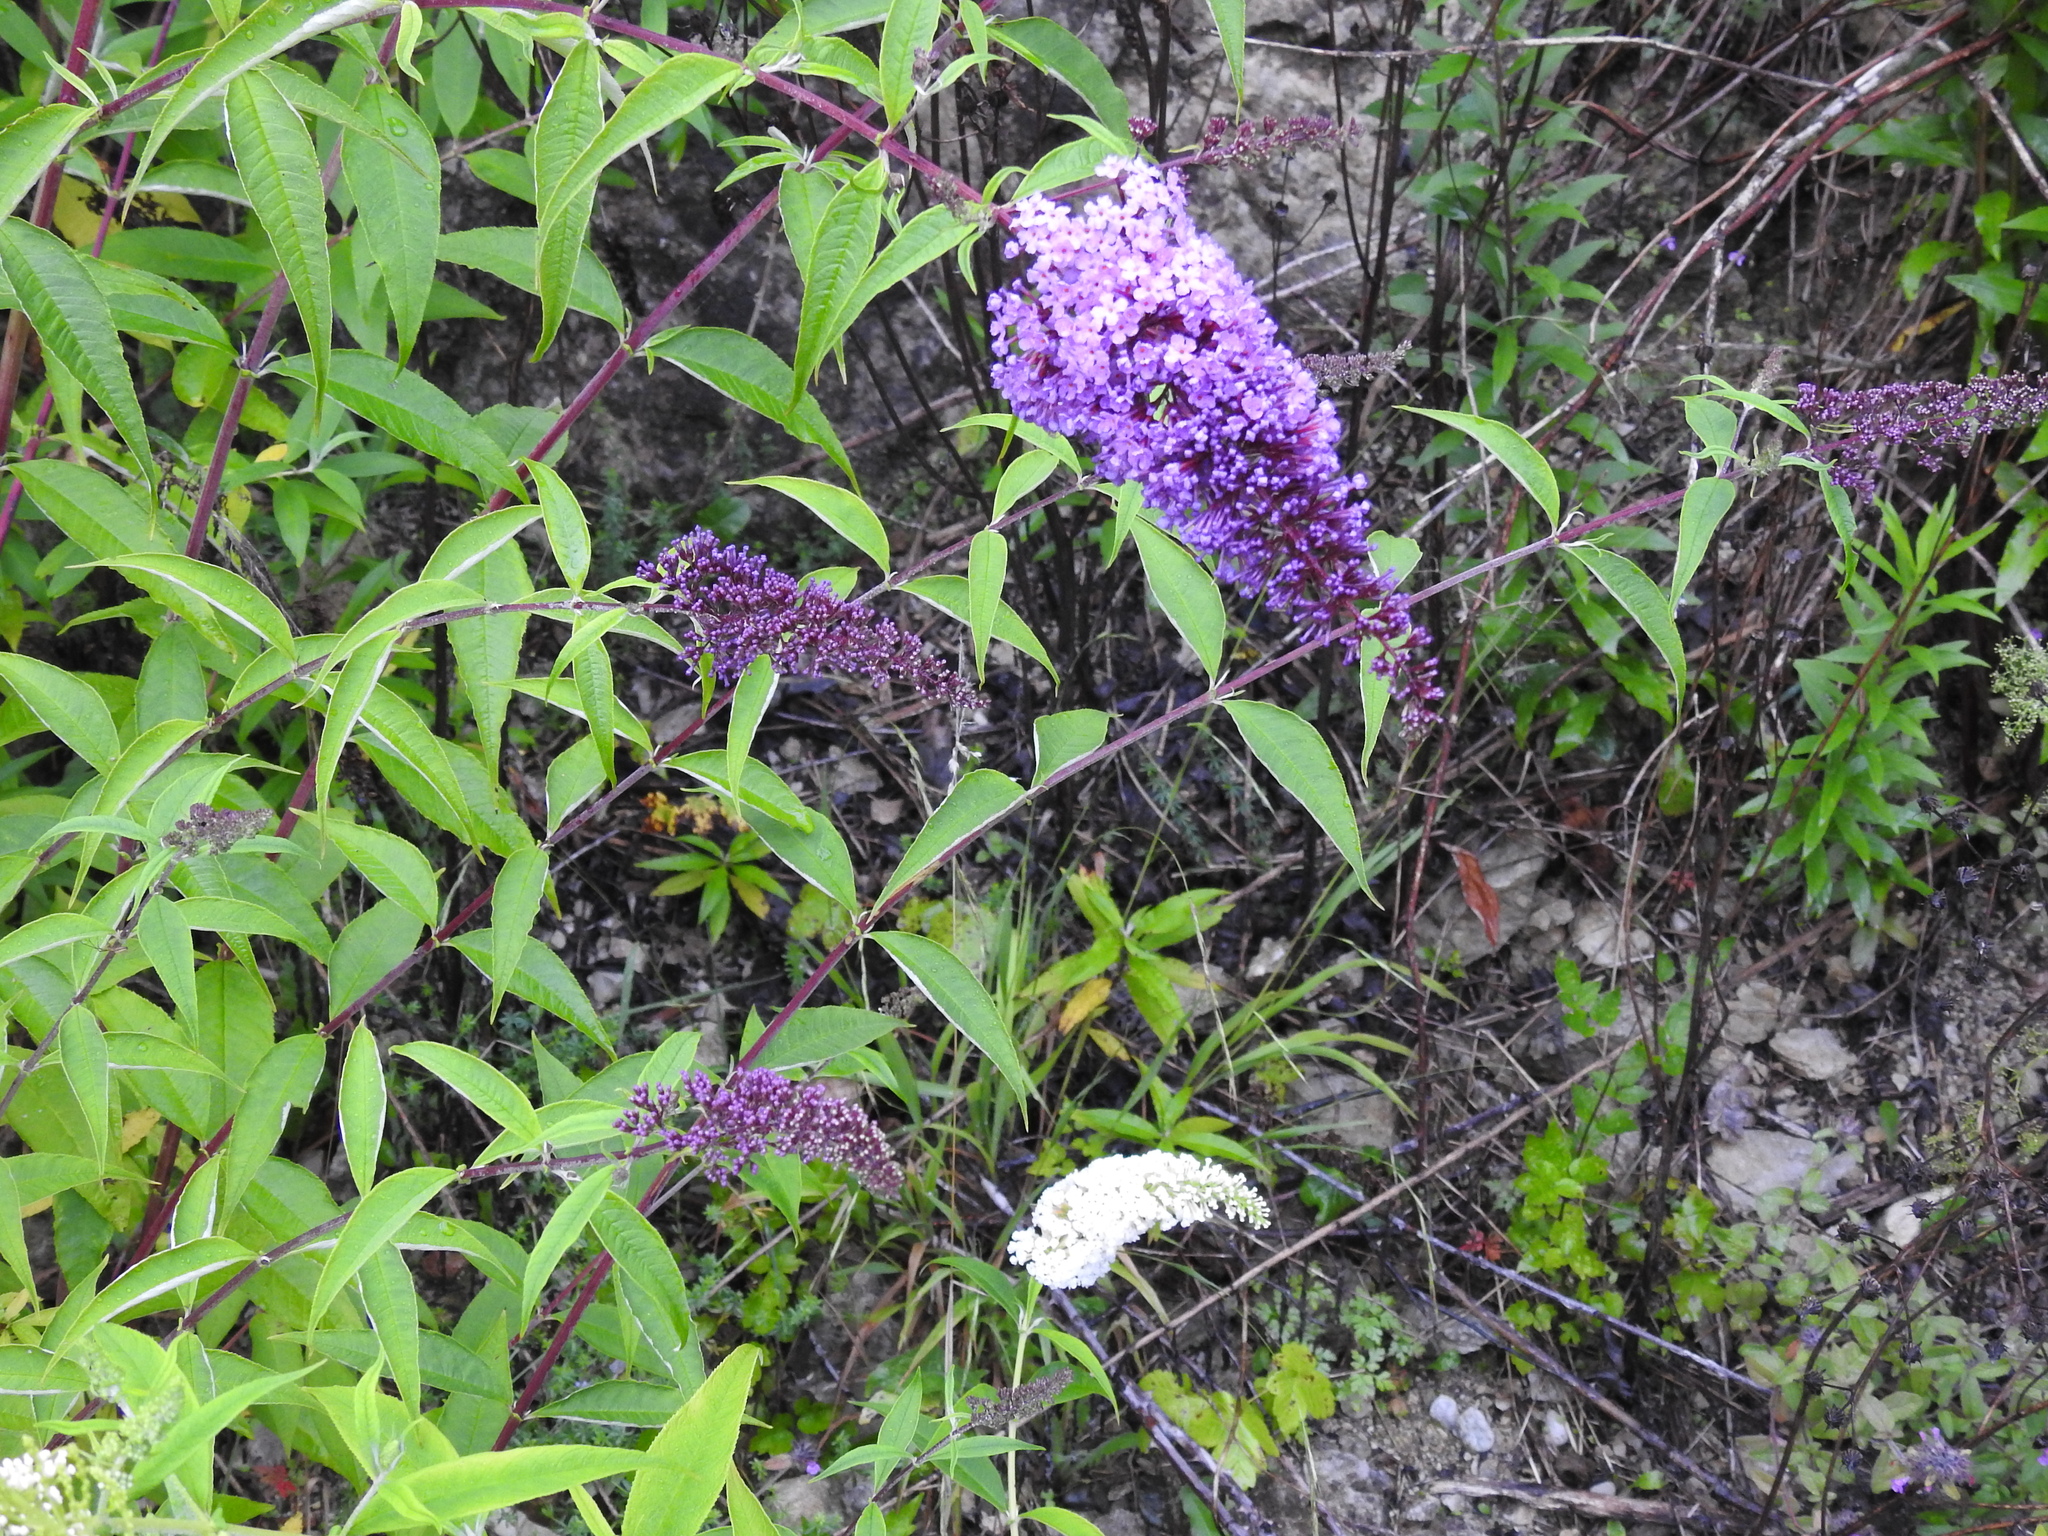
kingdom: Plantae
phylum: Tracheophyta
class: Magnoliopsida
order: Lamiales
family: Scrophulariaceae
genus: Buddleja
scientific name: Buddleja davidii
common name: Butterfly-bush
